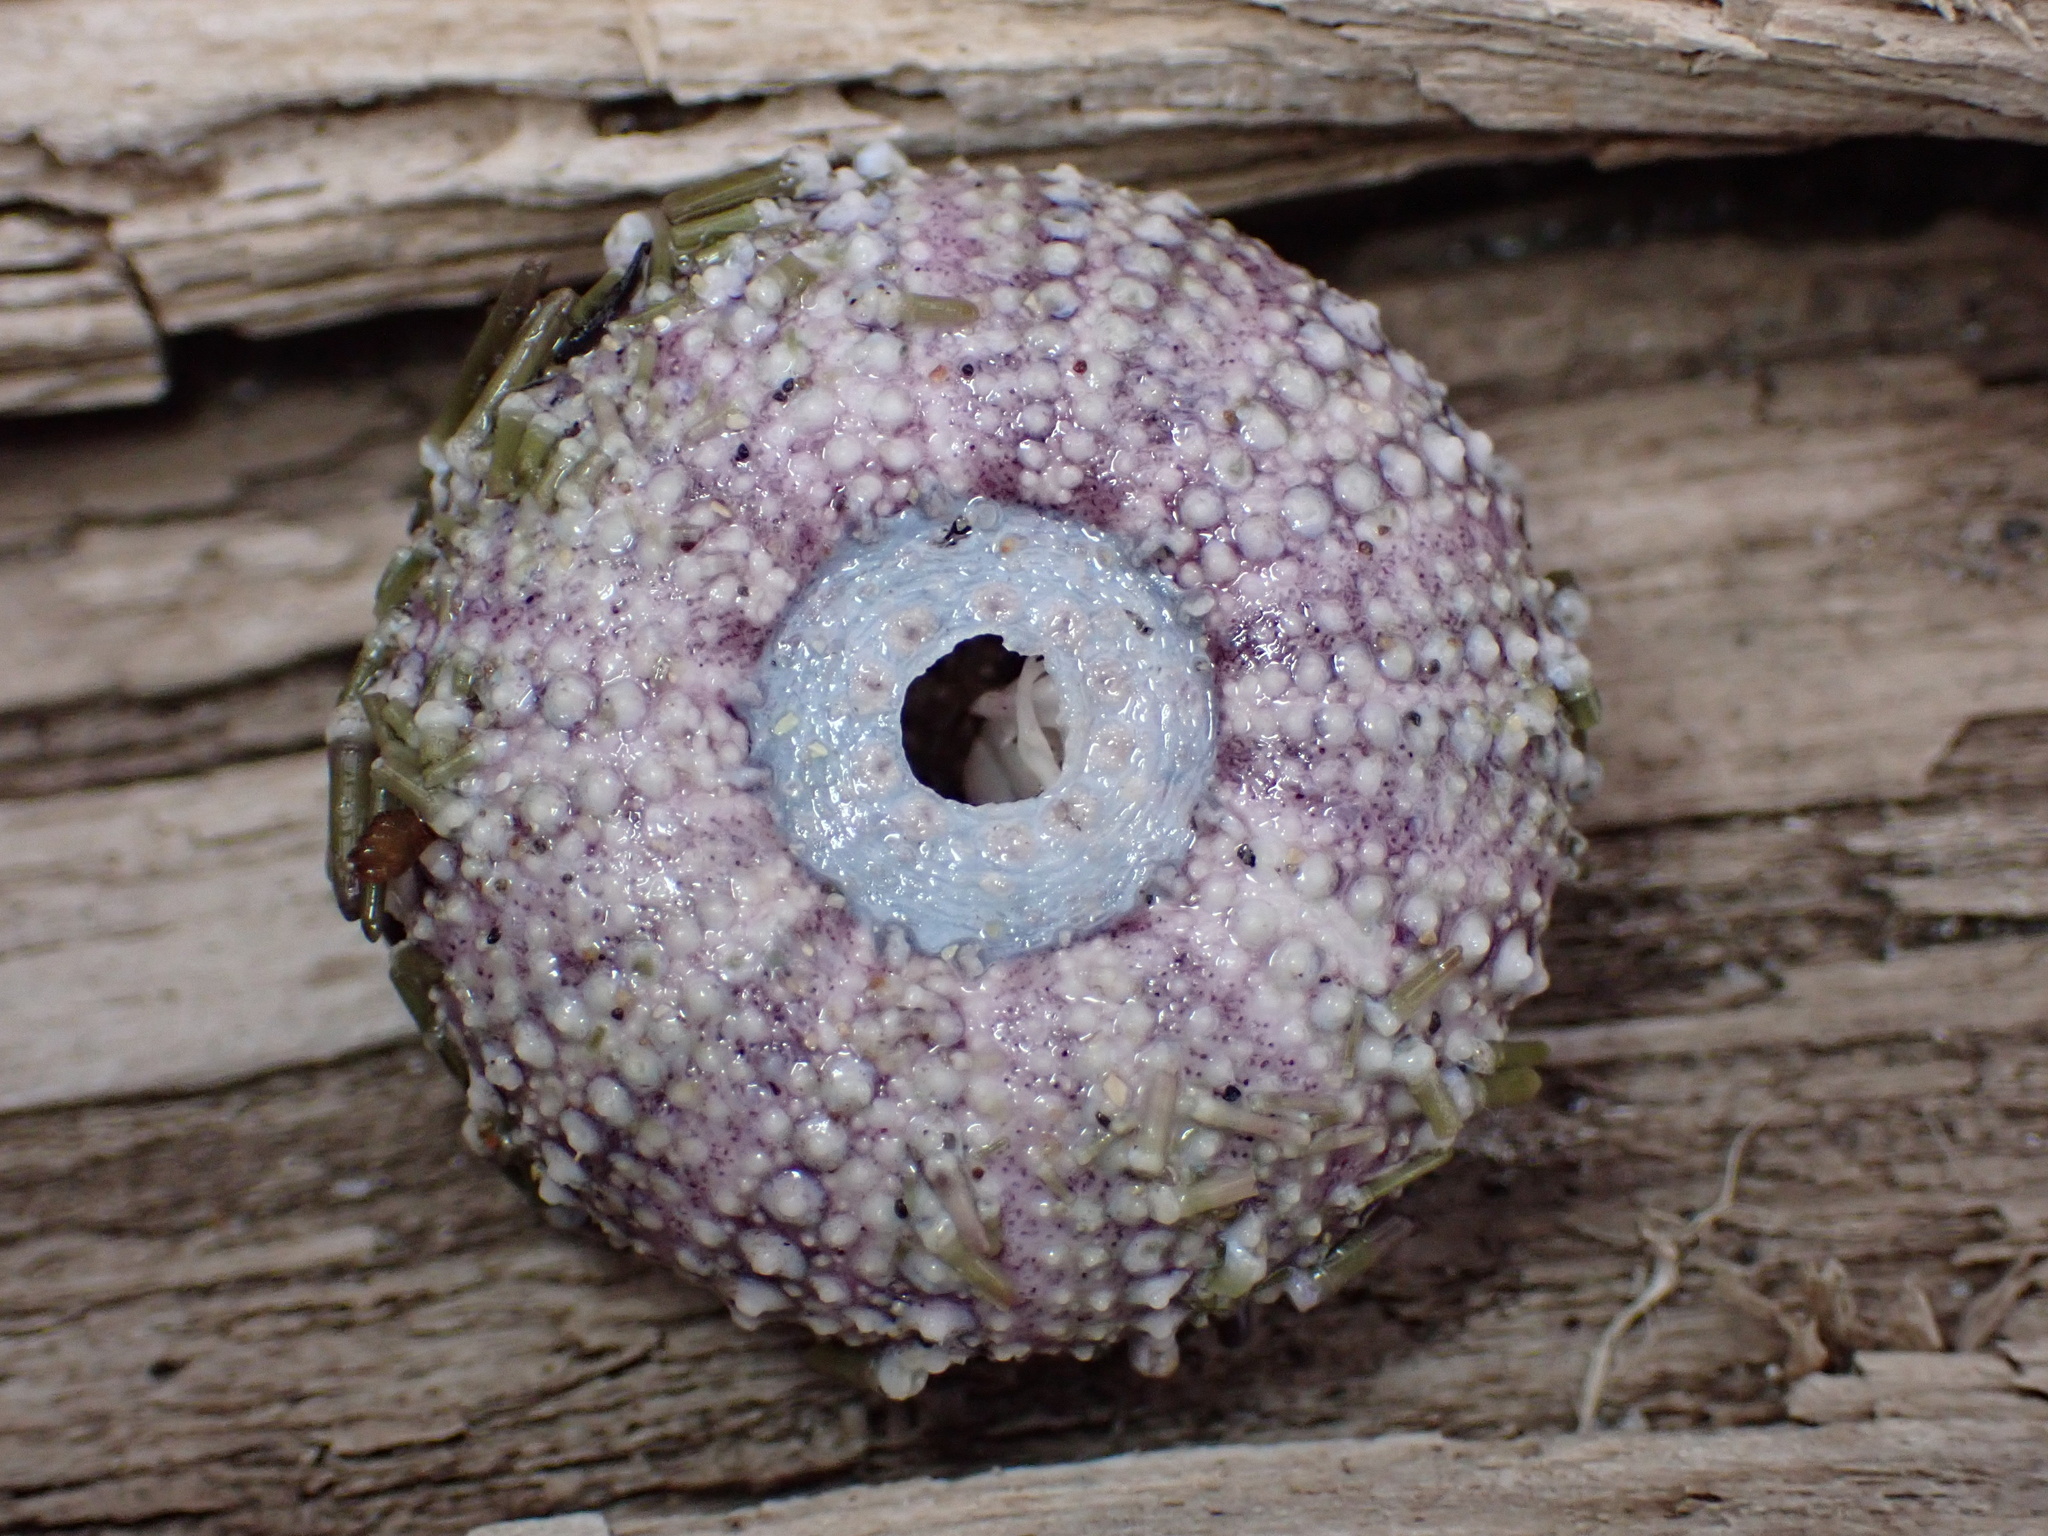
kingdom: Animalia
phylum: Echinodermata
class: Echinoidea
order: Camarodonta
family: Strongylocentrotidae
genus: Strongylocentrotus
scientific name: Strongylocentrotus purpuratus
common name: Purple sea urchin
